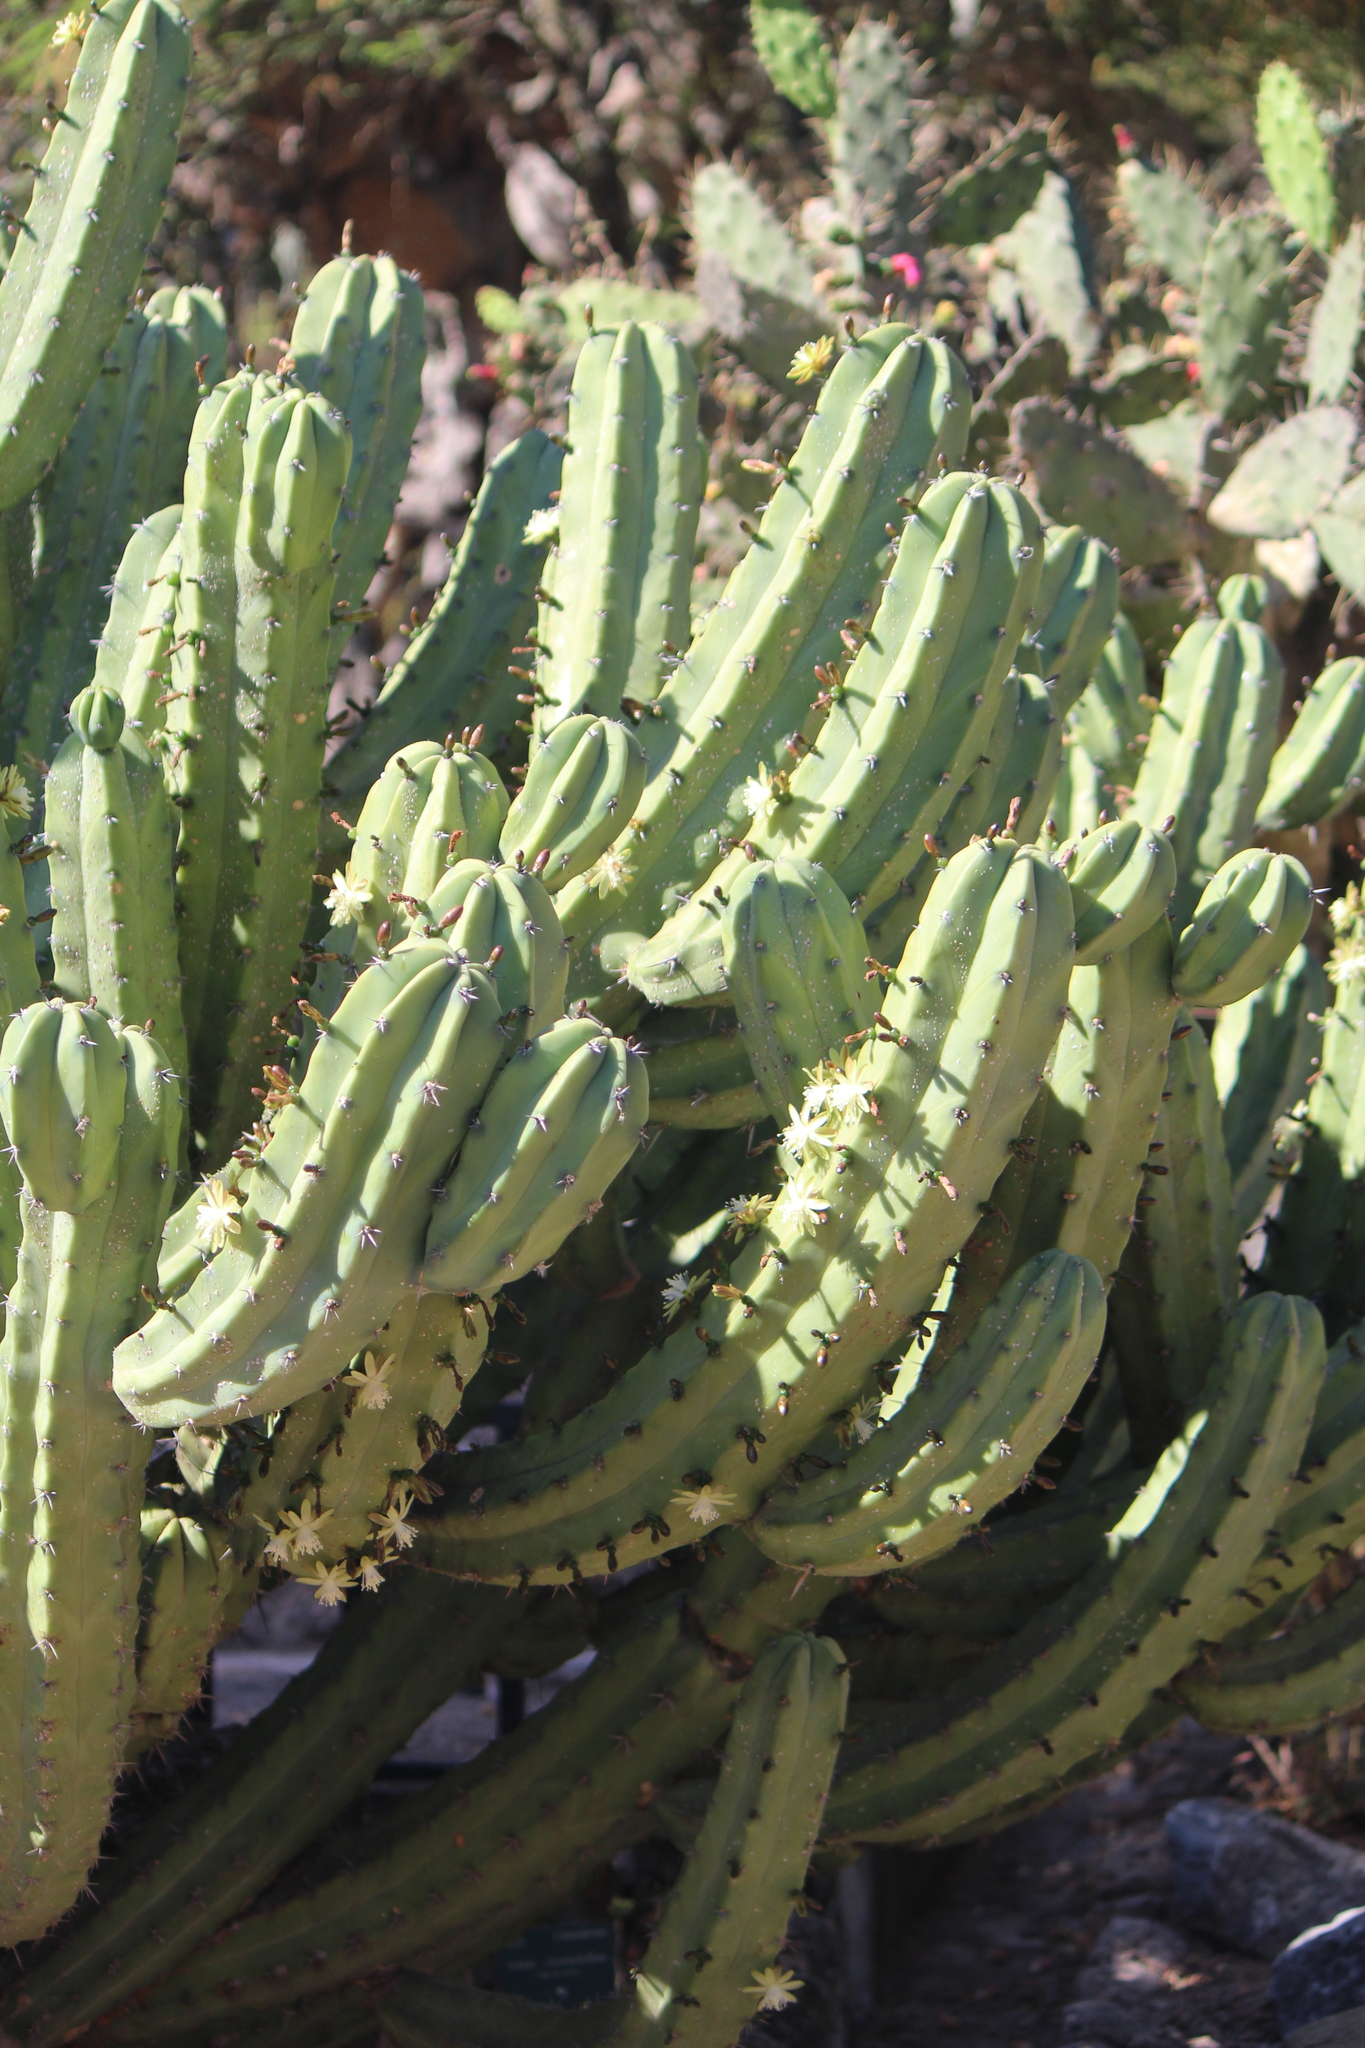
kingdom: Plantae
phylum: Tracheophyta
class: Magnoliopsida
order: Caryophyllales
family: Cactaceae
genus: Myrtillocactus
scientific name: Myrtillocactus geometrizans
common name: Bilberry cactus
